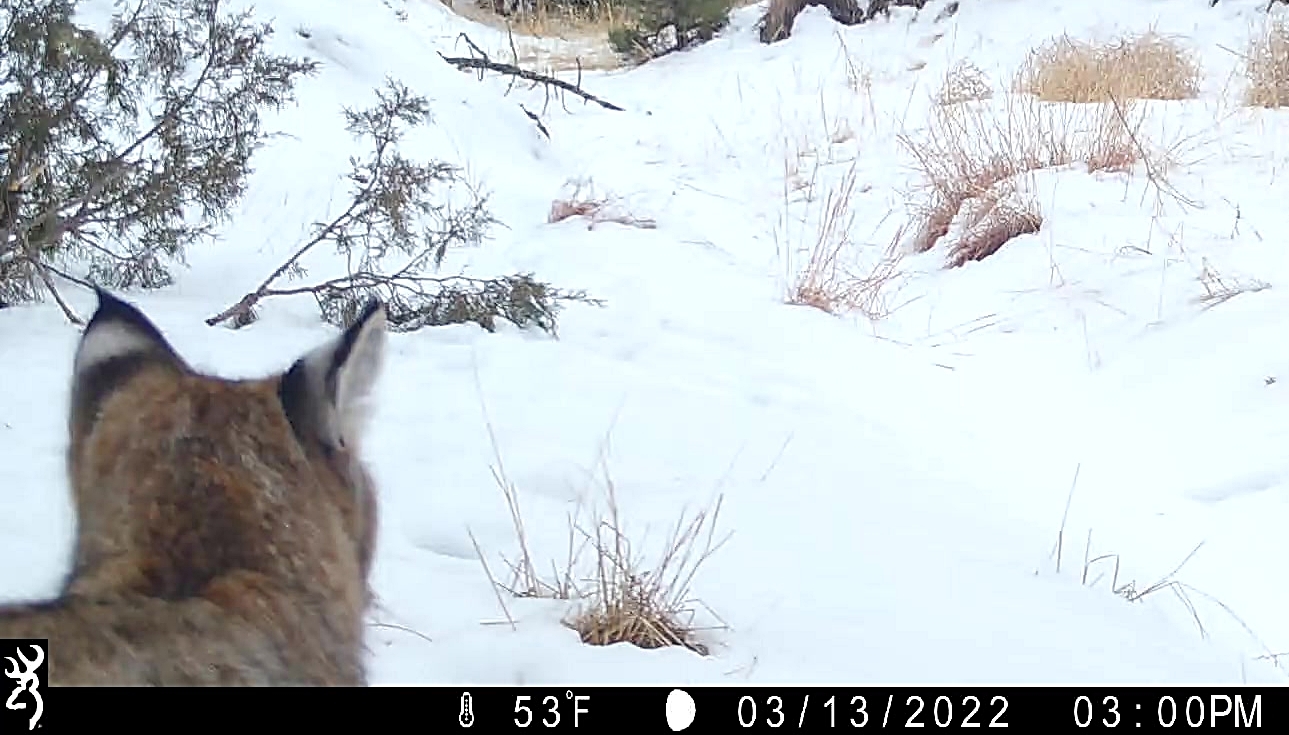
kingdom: Animalia
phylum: Chordata
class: Mammalia
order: Carnivora
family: Felidae
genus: Lynx
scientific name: Lynx rufus
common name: Bobcat
